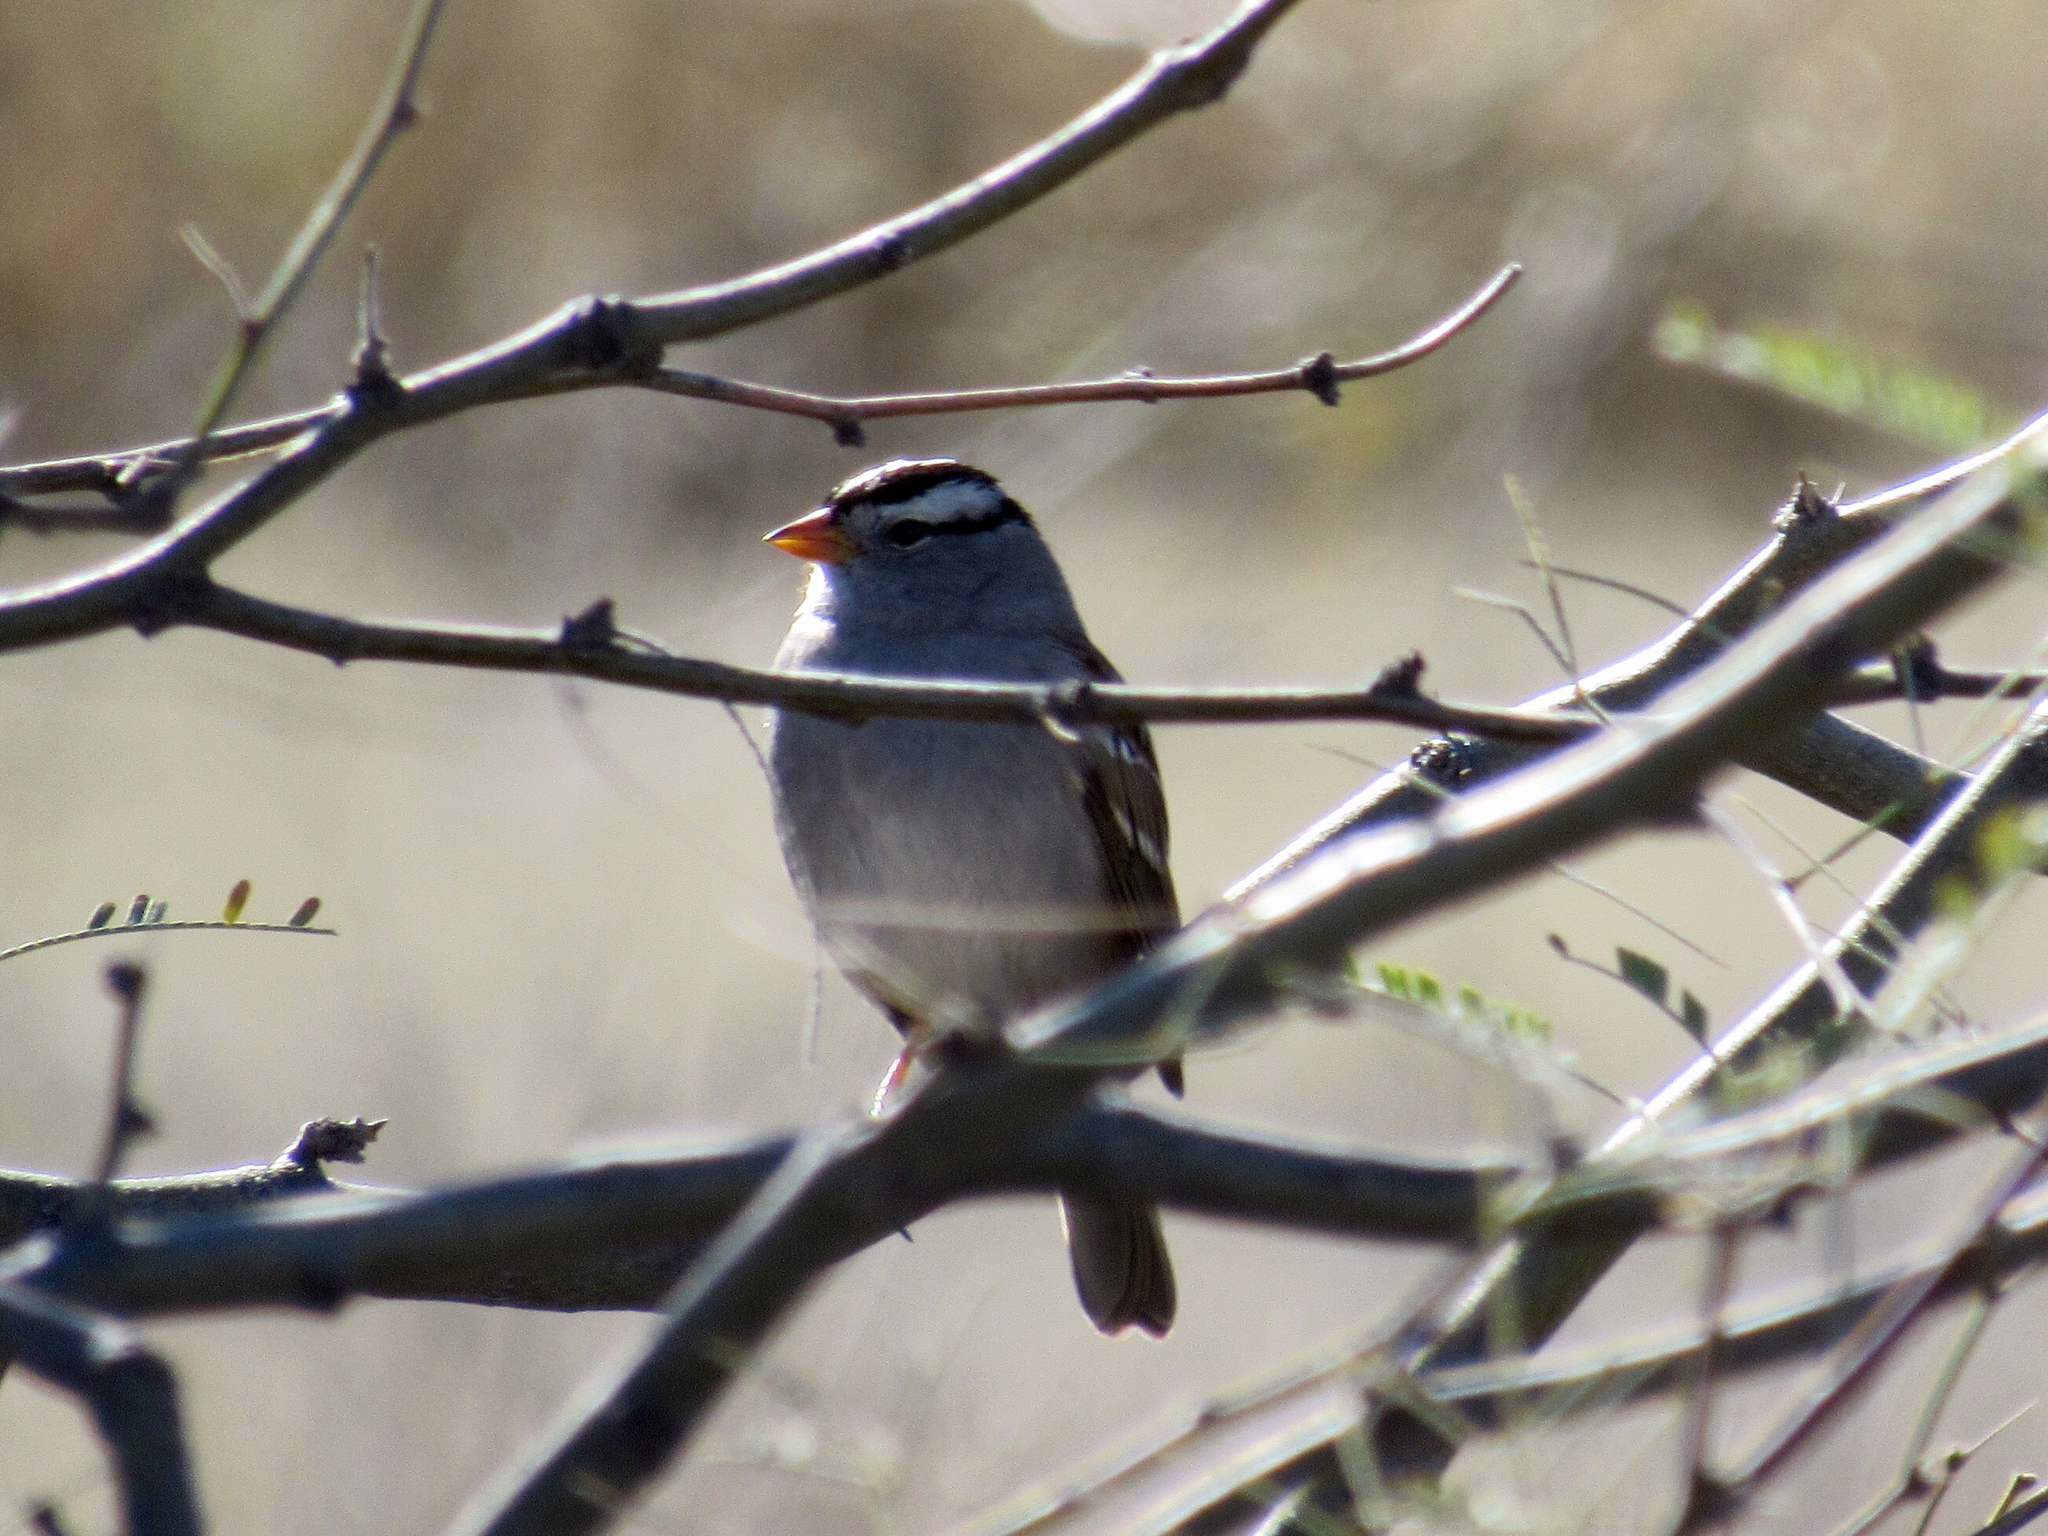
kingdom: Animalia
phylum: Chordata
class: Aves
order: Passeriformes
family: Passerellidae
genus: Zonotrichia
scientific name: Zonotrichia leucophrys
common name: White-crowned sparrow
